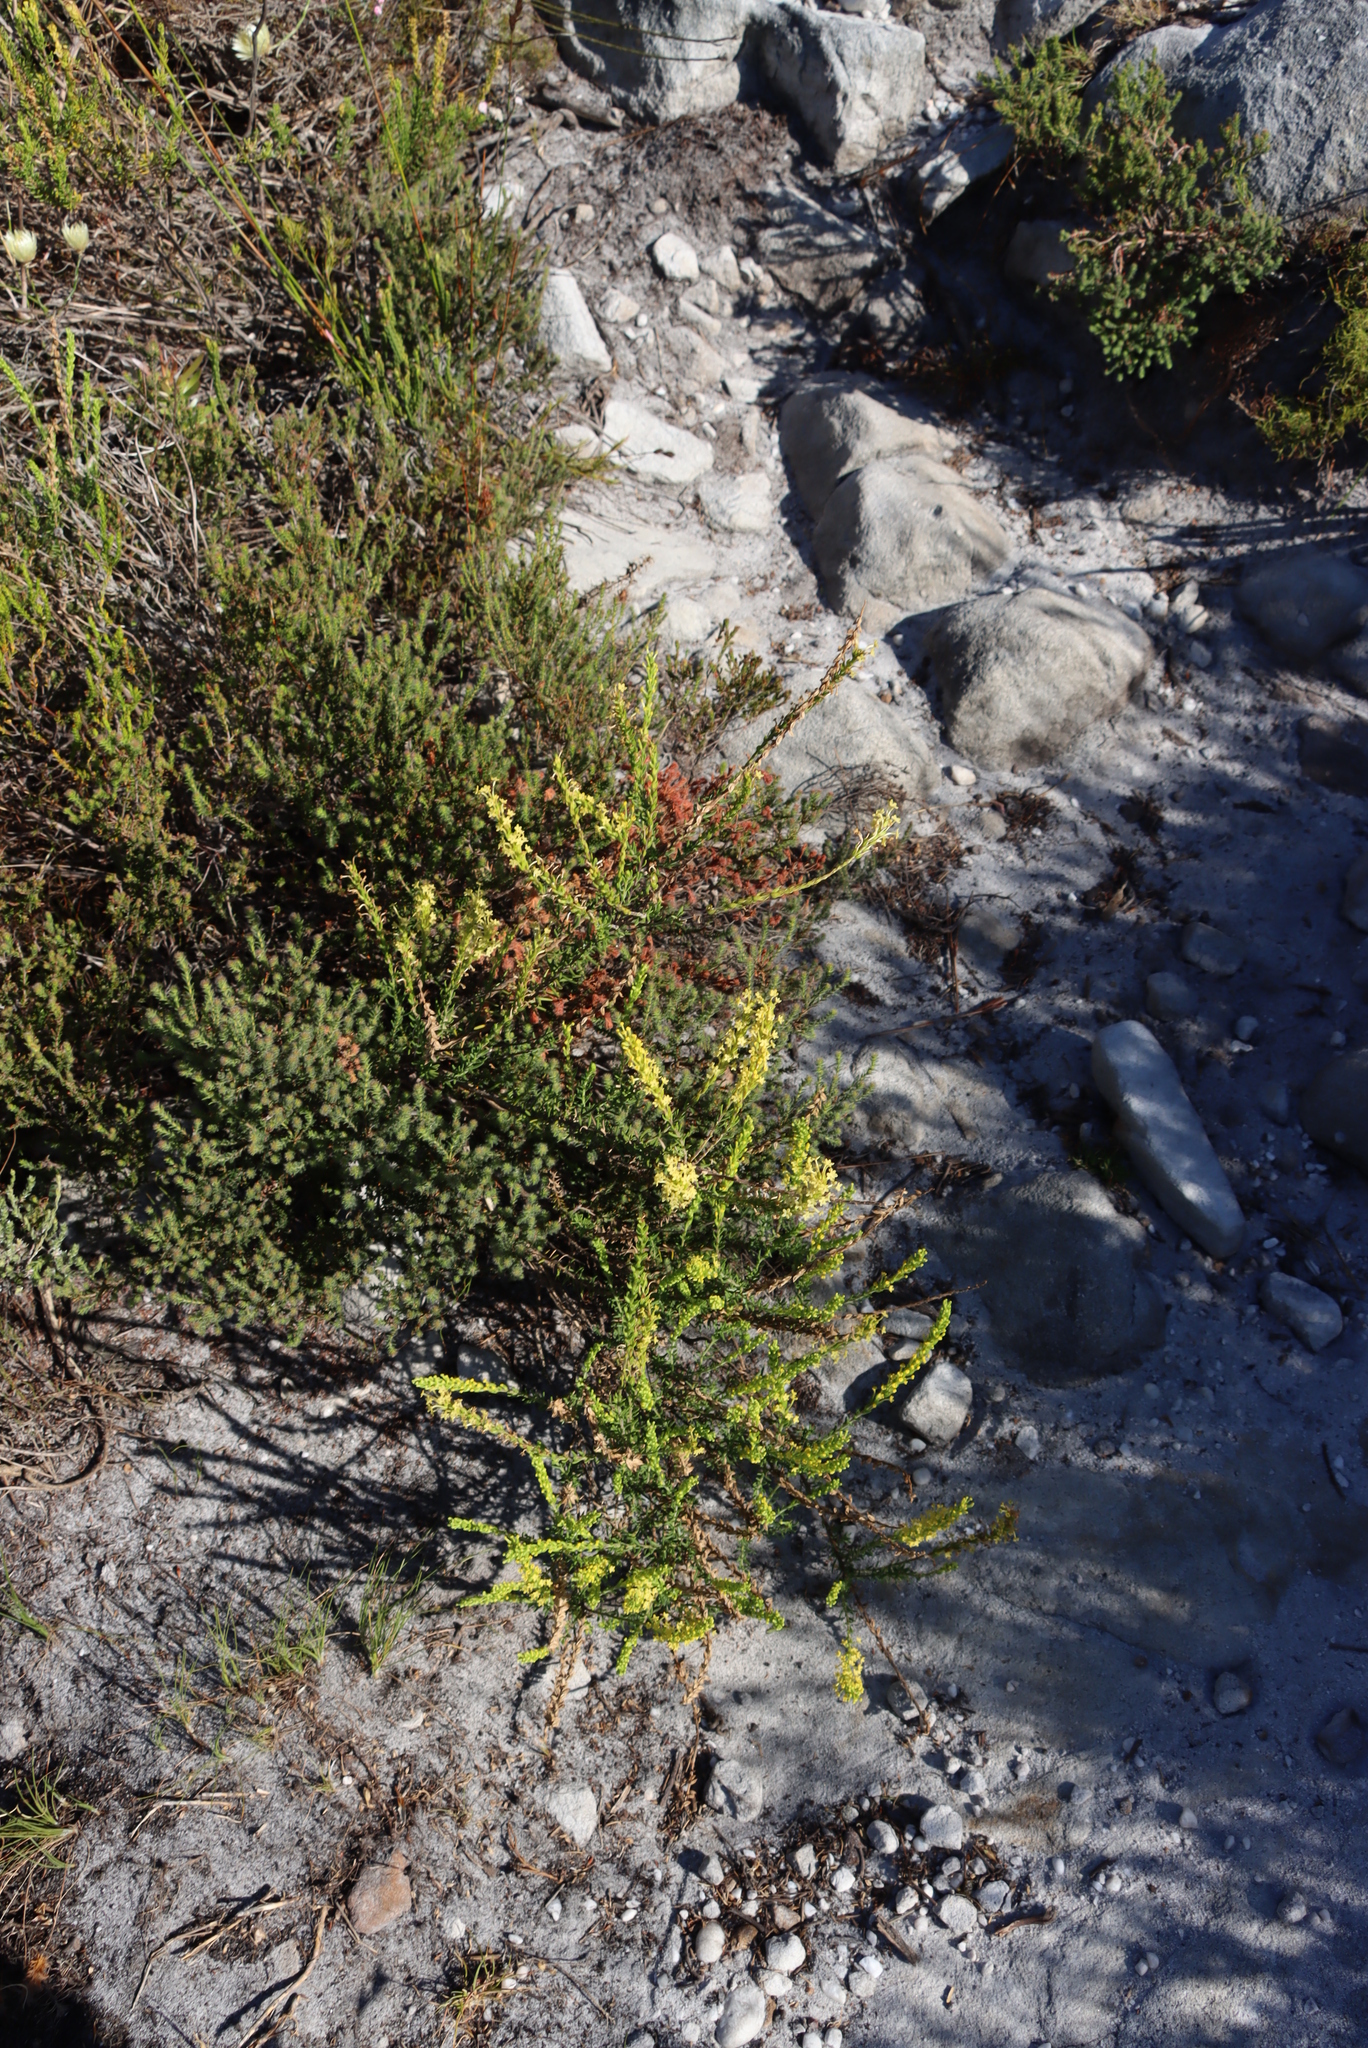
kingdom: Plantae
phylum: Tracheophyta
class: Magnoliopsida
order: Lamiales
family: Scrophulariaceae
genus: Microdon
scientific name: Microdon dubius
